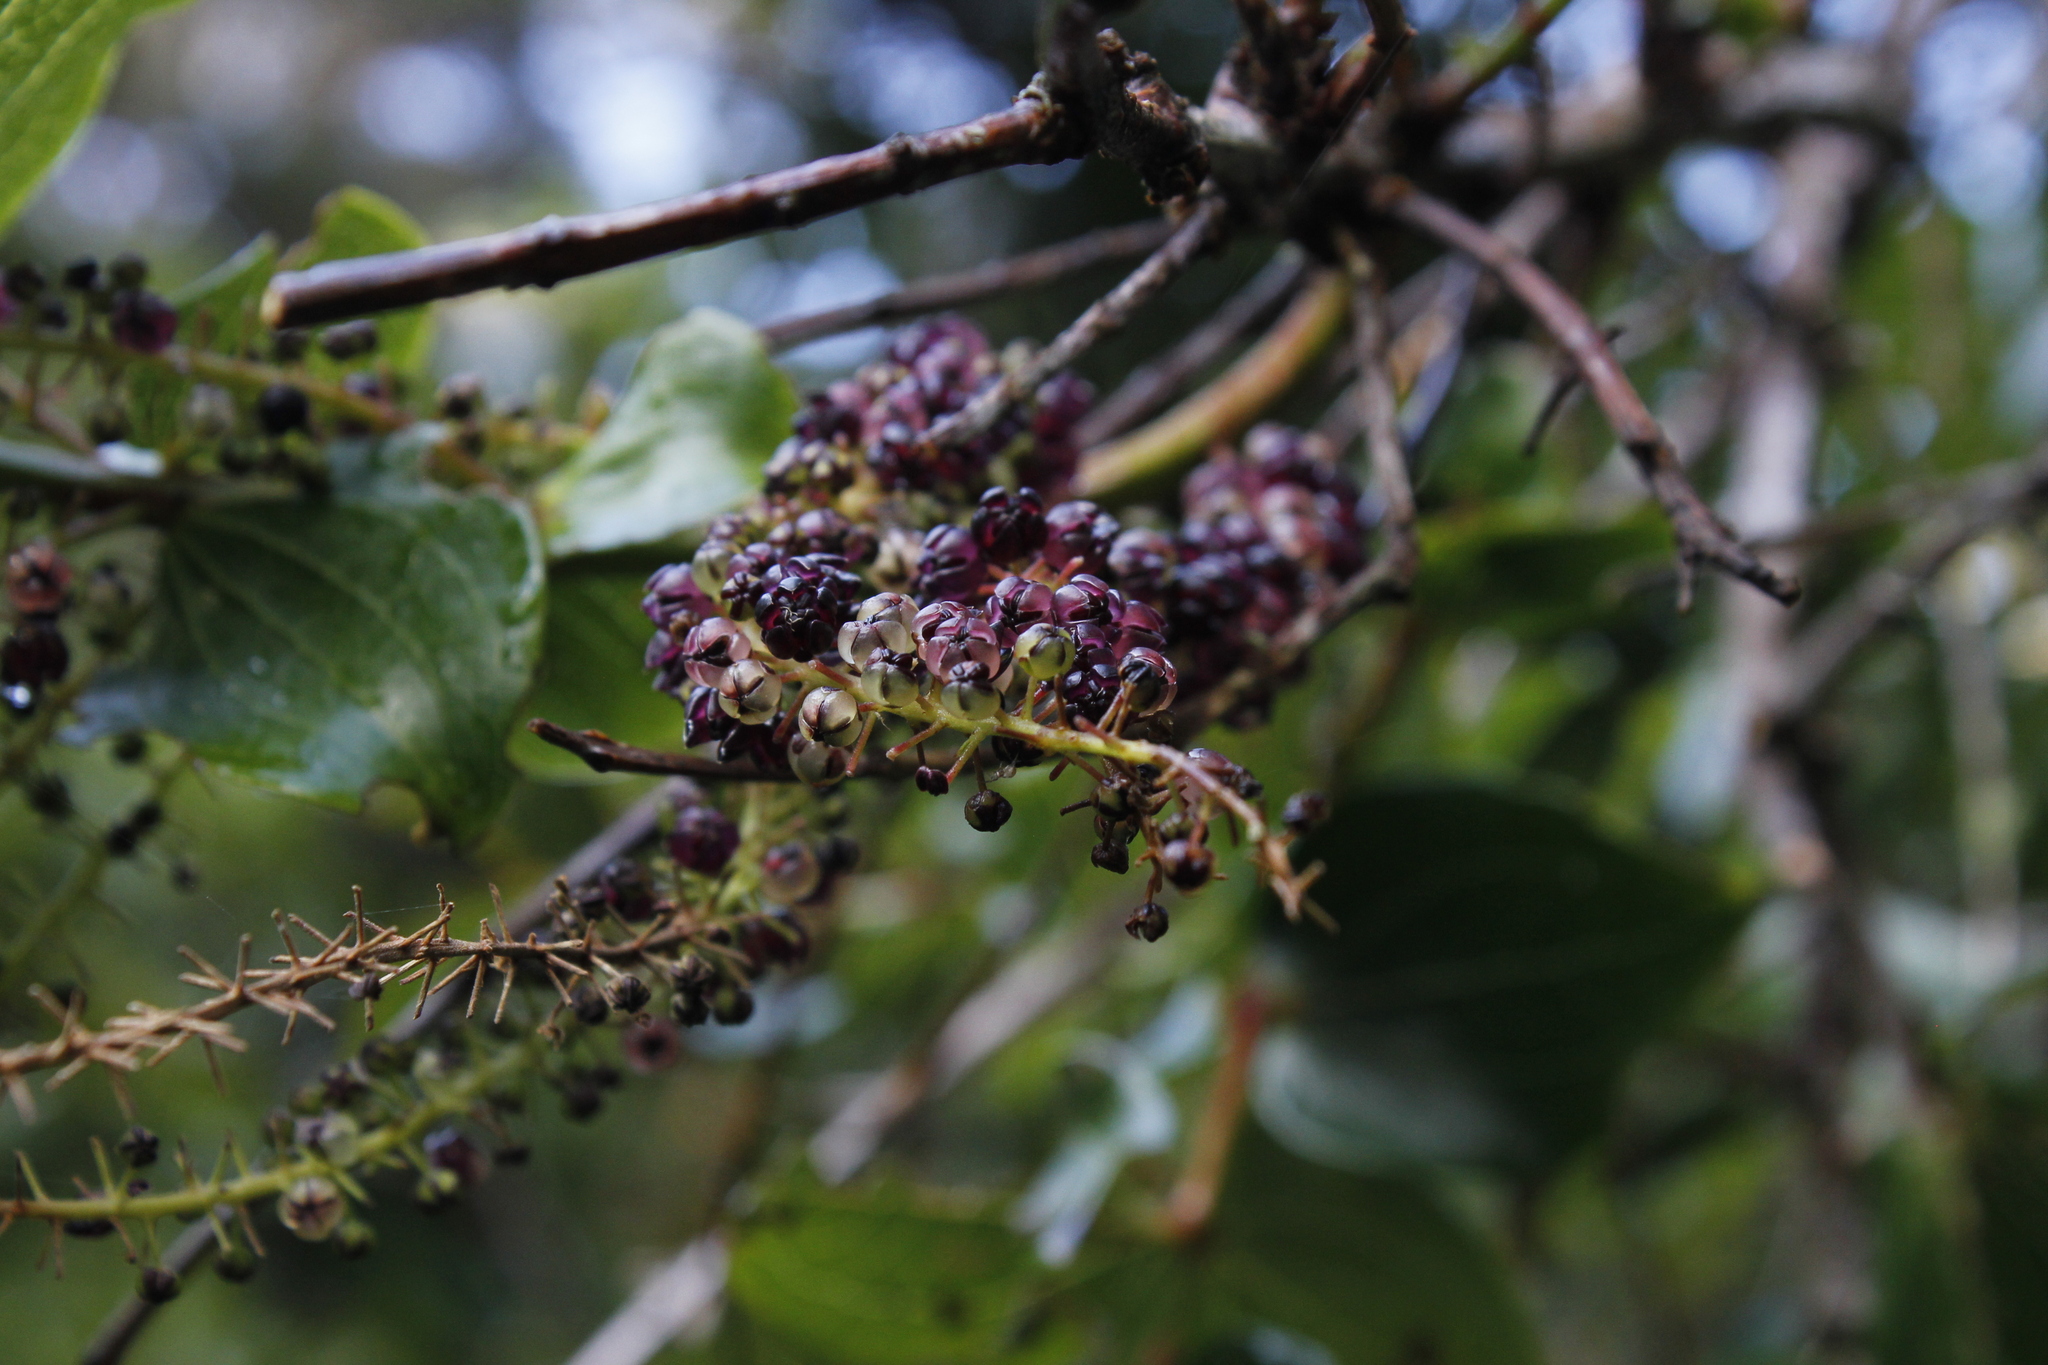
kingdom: Plantae
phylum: Tracheophyta
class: Magnoliopsida
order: Cucurbitales
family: Coriariaceae
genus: Coriaria
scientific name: Coriaria arborea
